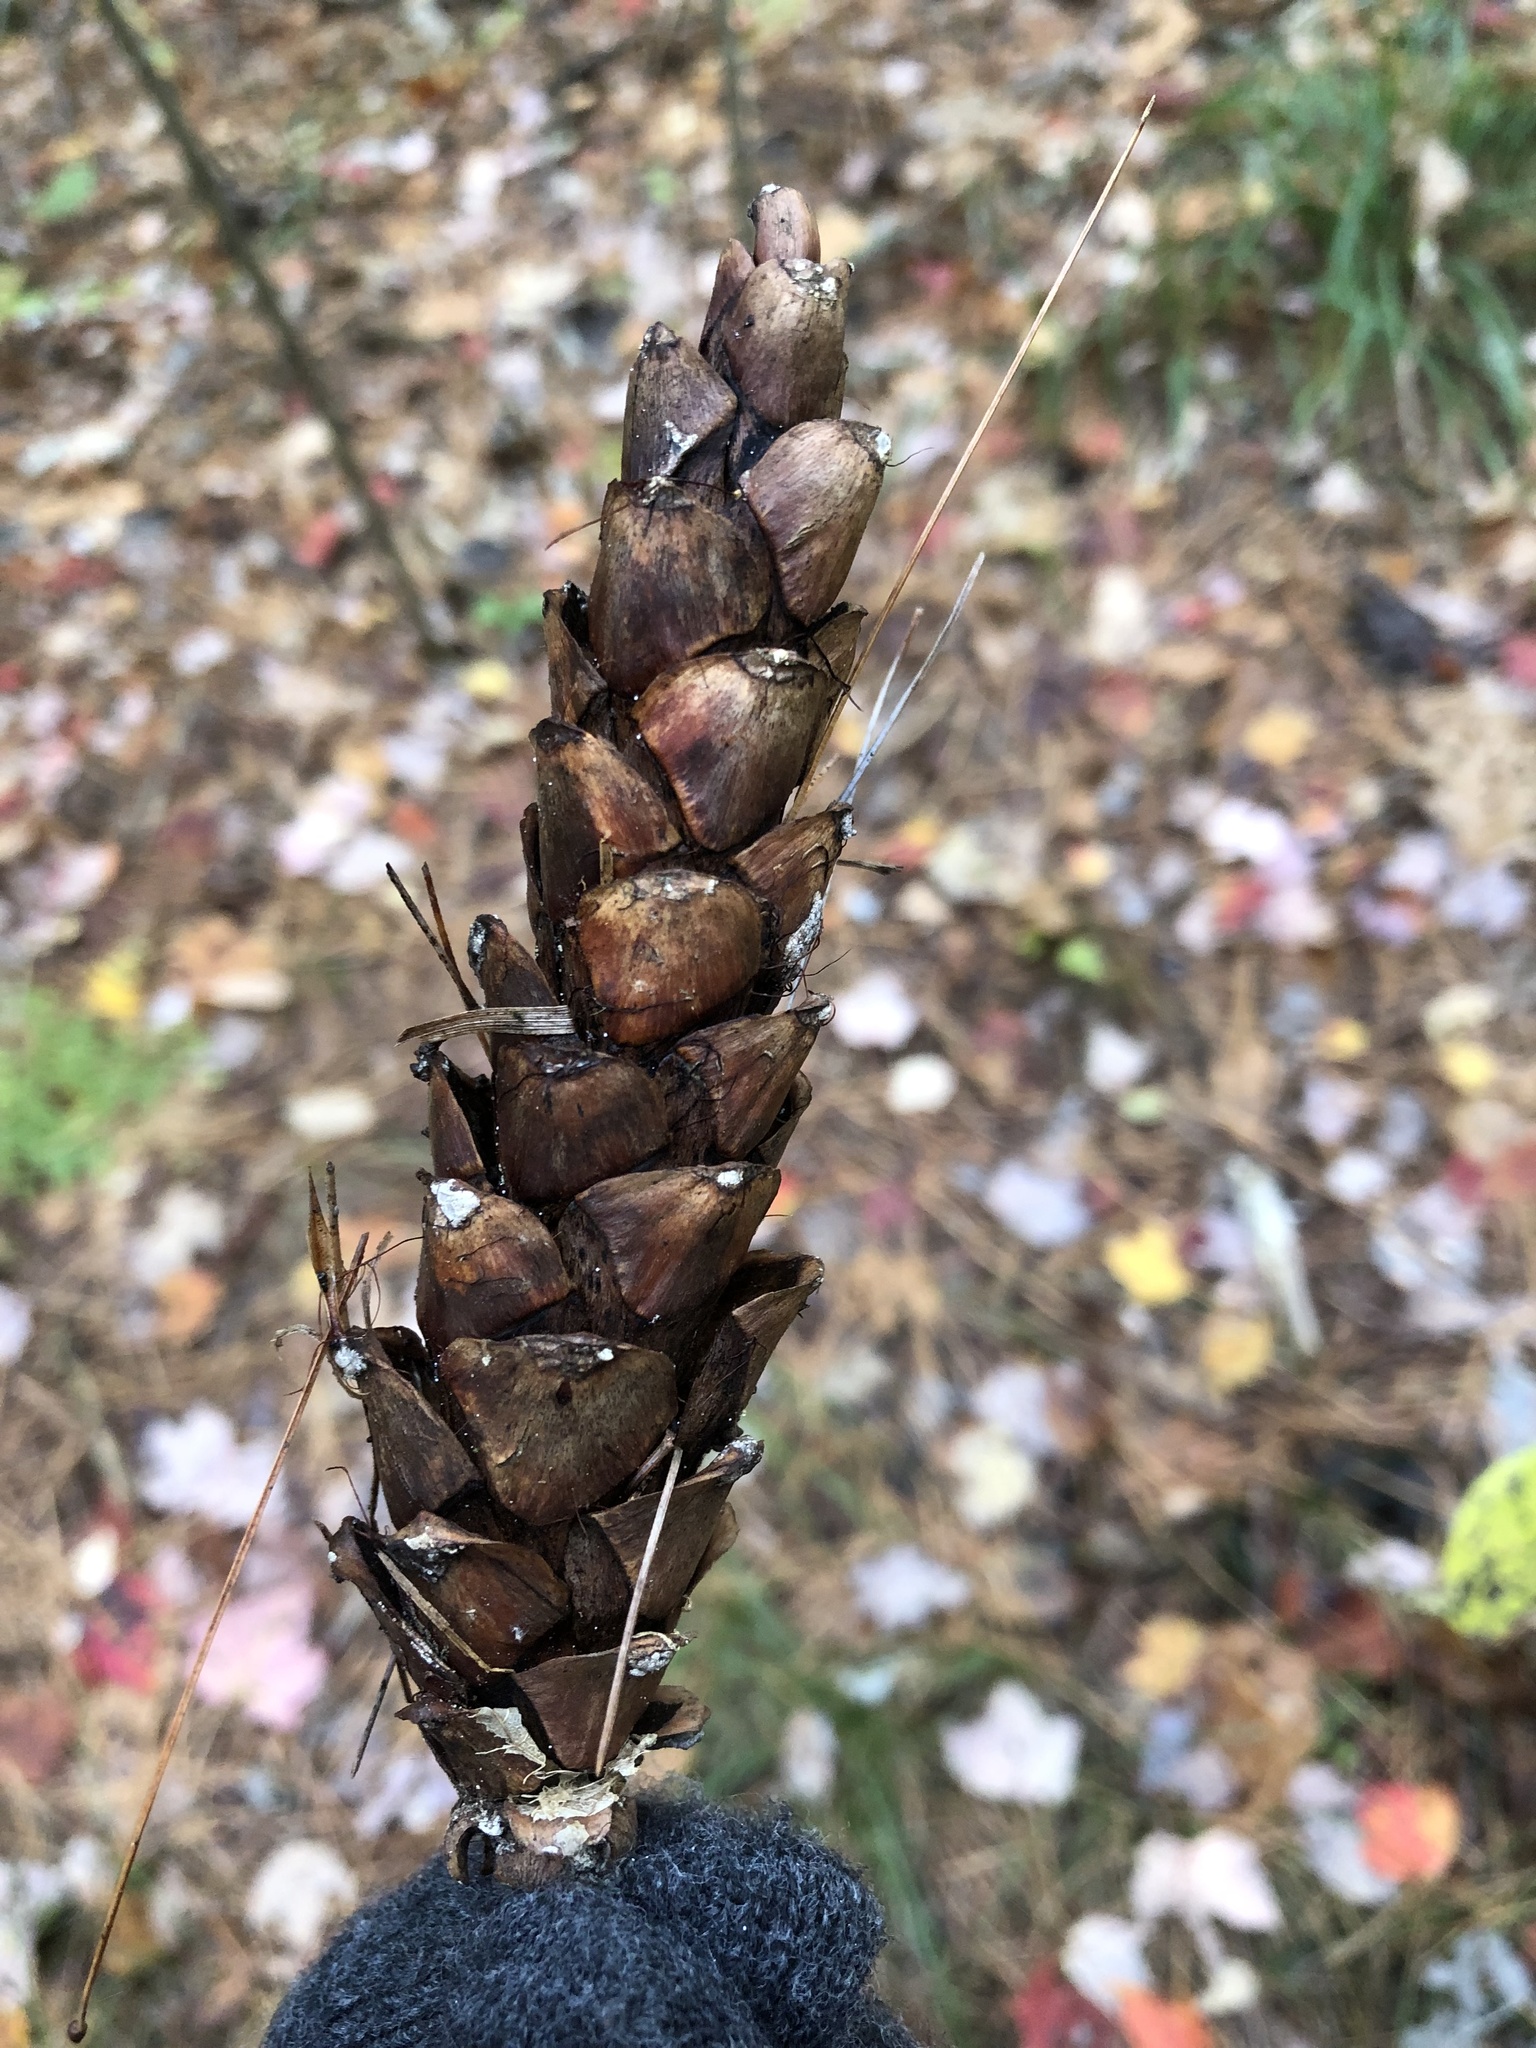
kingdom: Plantae
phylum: Tracheophyta
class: Pinopsida
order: Pinales
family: Pinaceae
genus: Pinus
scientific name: Pinus strobus
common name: Weymouth pine
